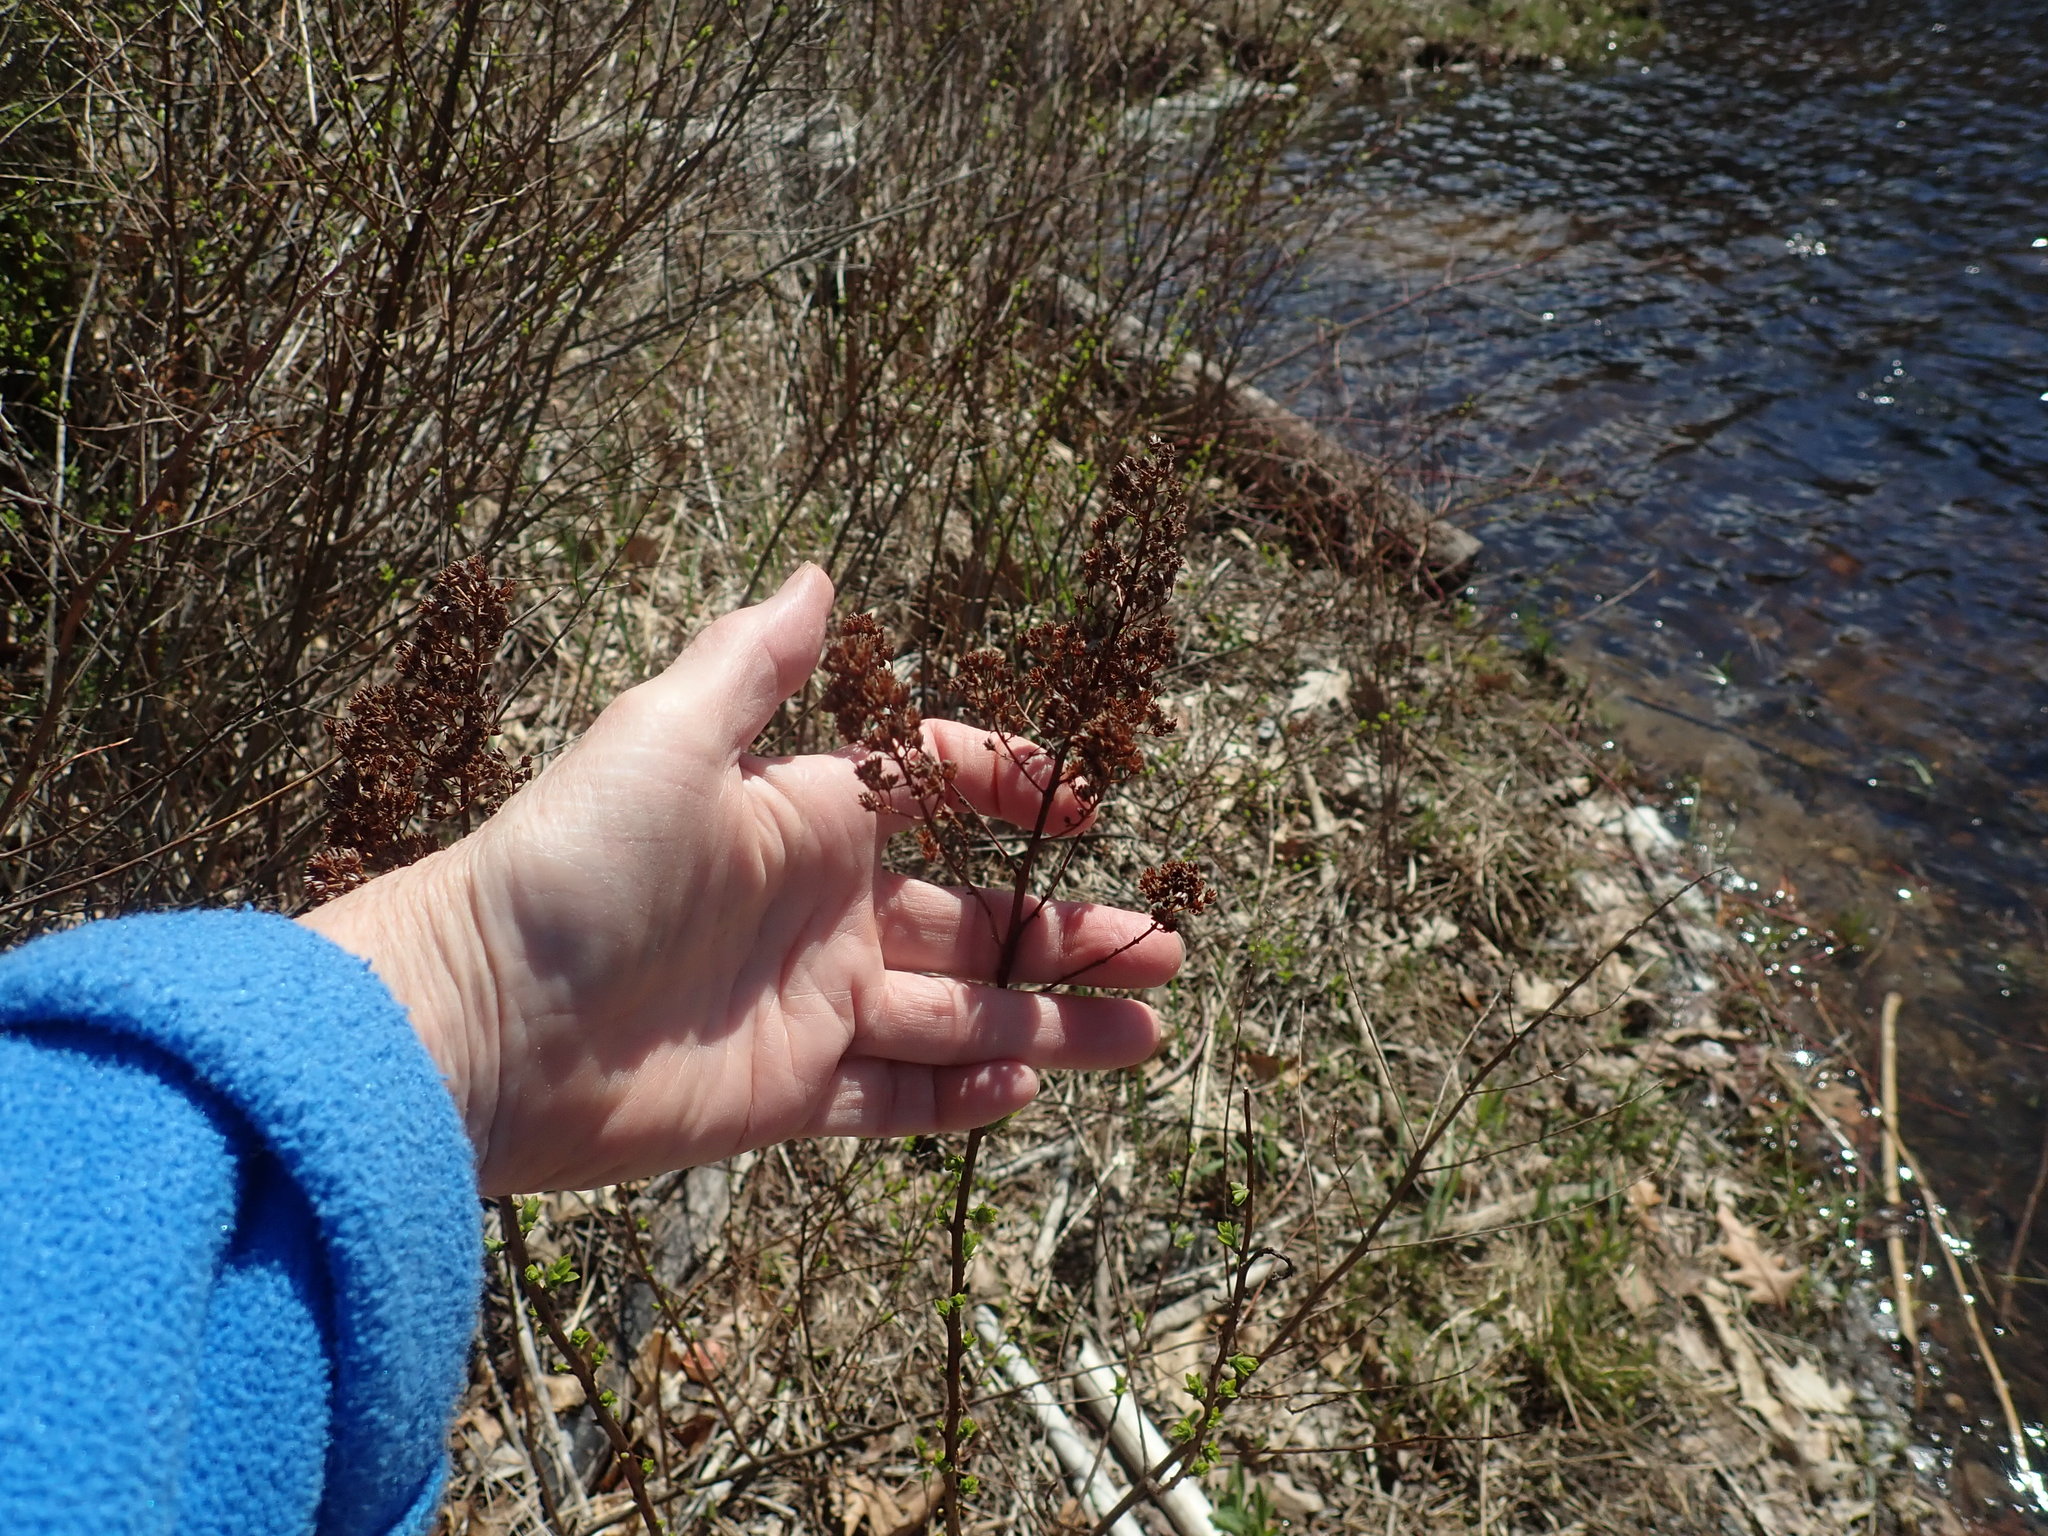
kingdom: Plantae
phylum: Tracheophyta
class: Magnoliopsida
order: Rosales
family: Rosaceae
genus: Spiraea
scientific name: Spiraea alba
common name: Pale bridewort
